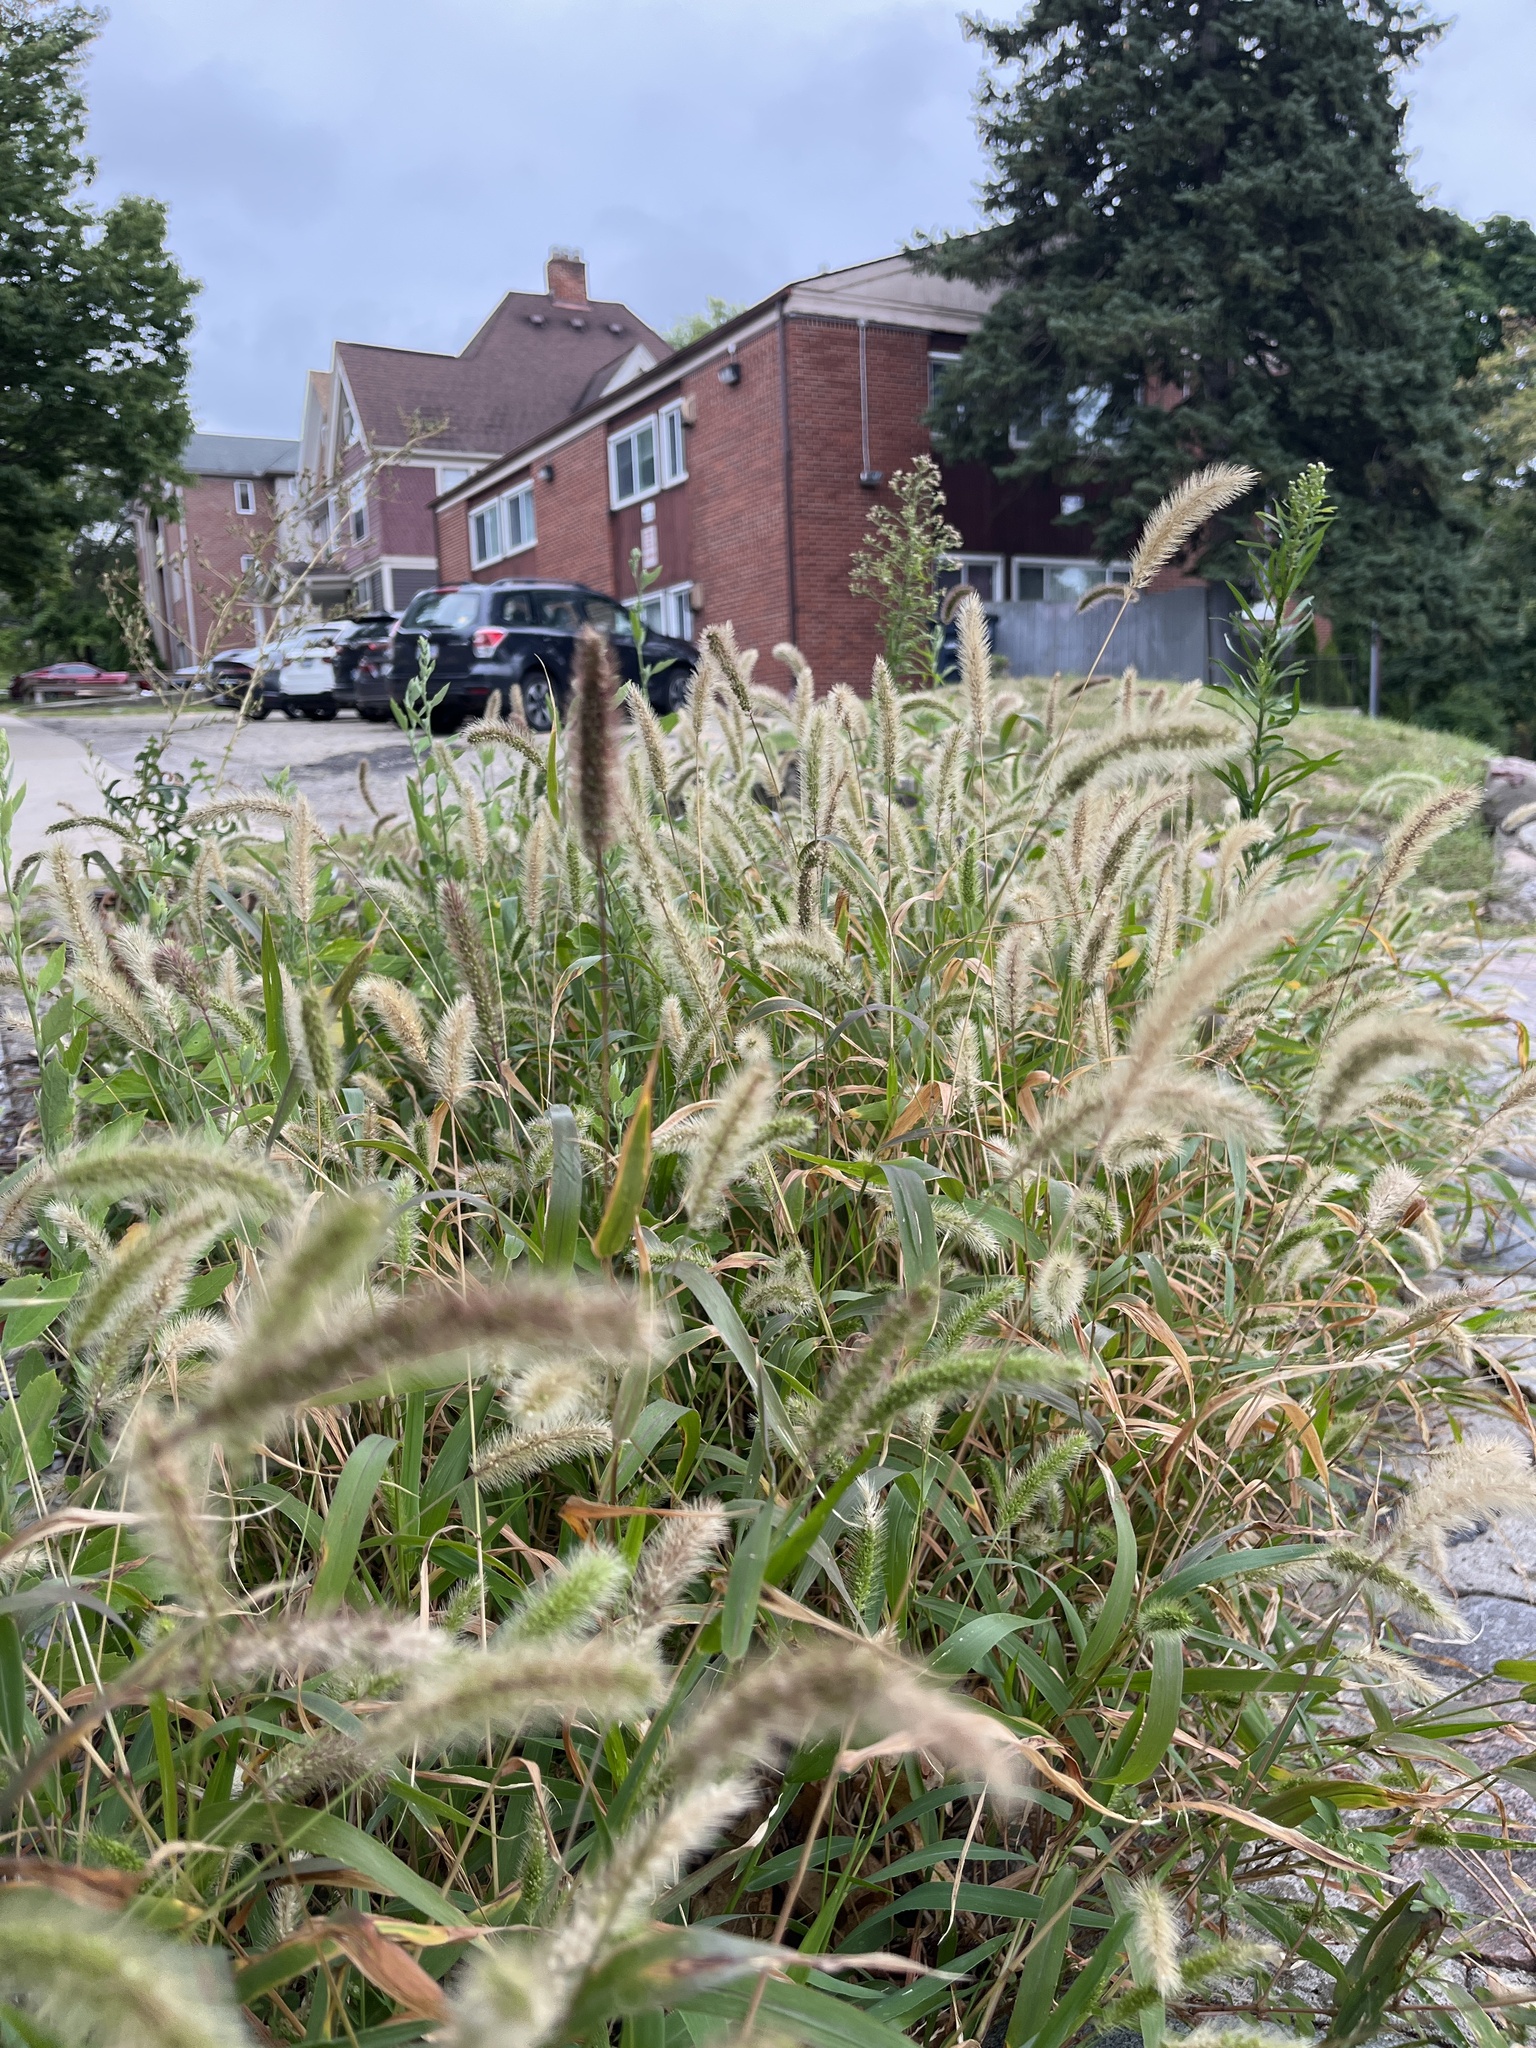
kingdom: Plantae
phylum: Tracheophyta
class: Liliopsida
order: Poales
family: Poaceae
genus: Setaria
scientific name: Setaria viridis
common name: Green bristlegrass
